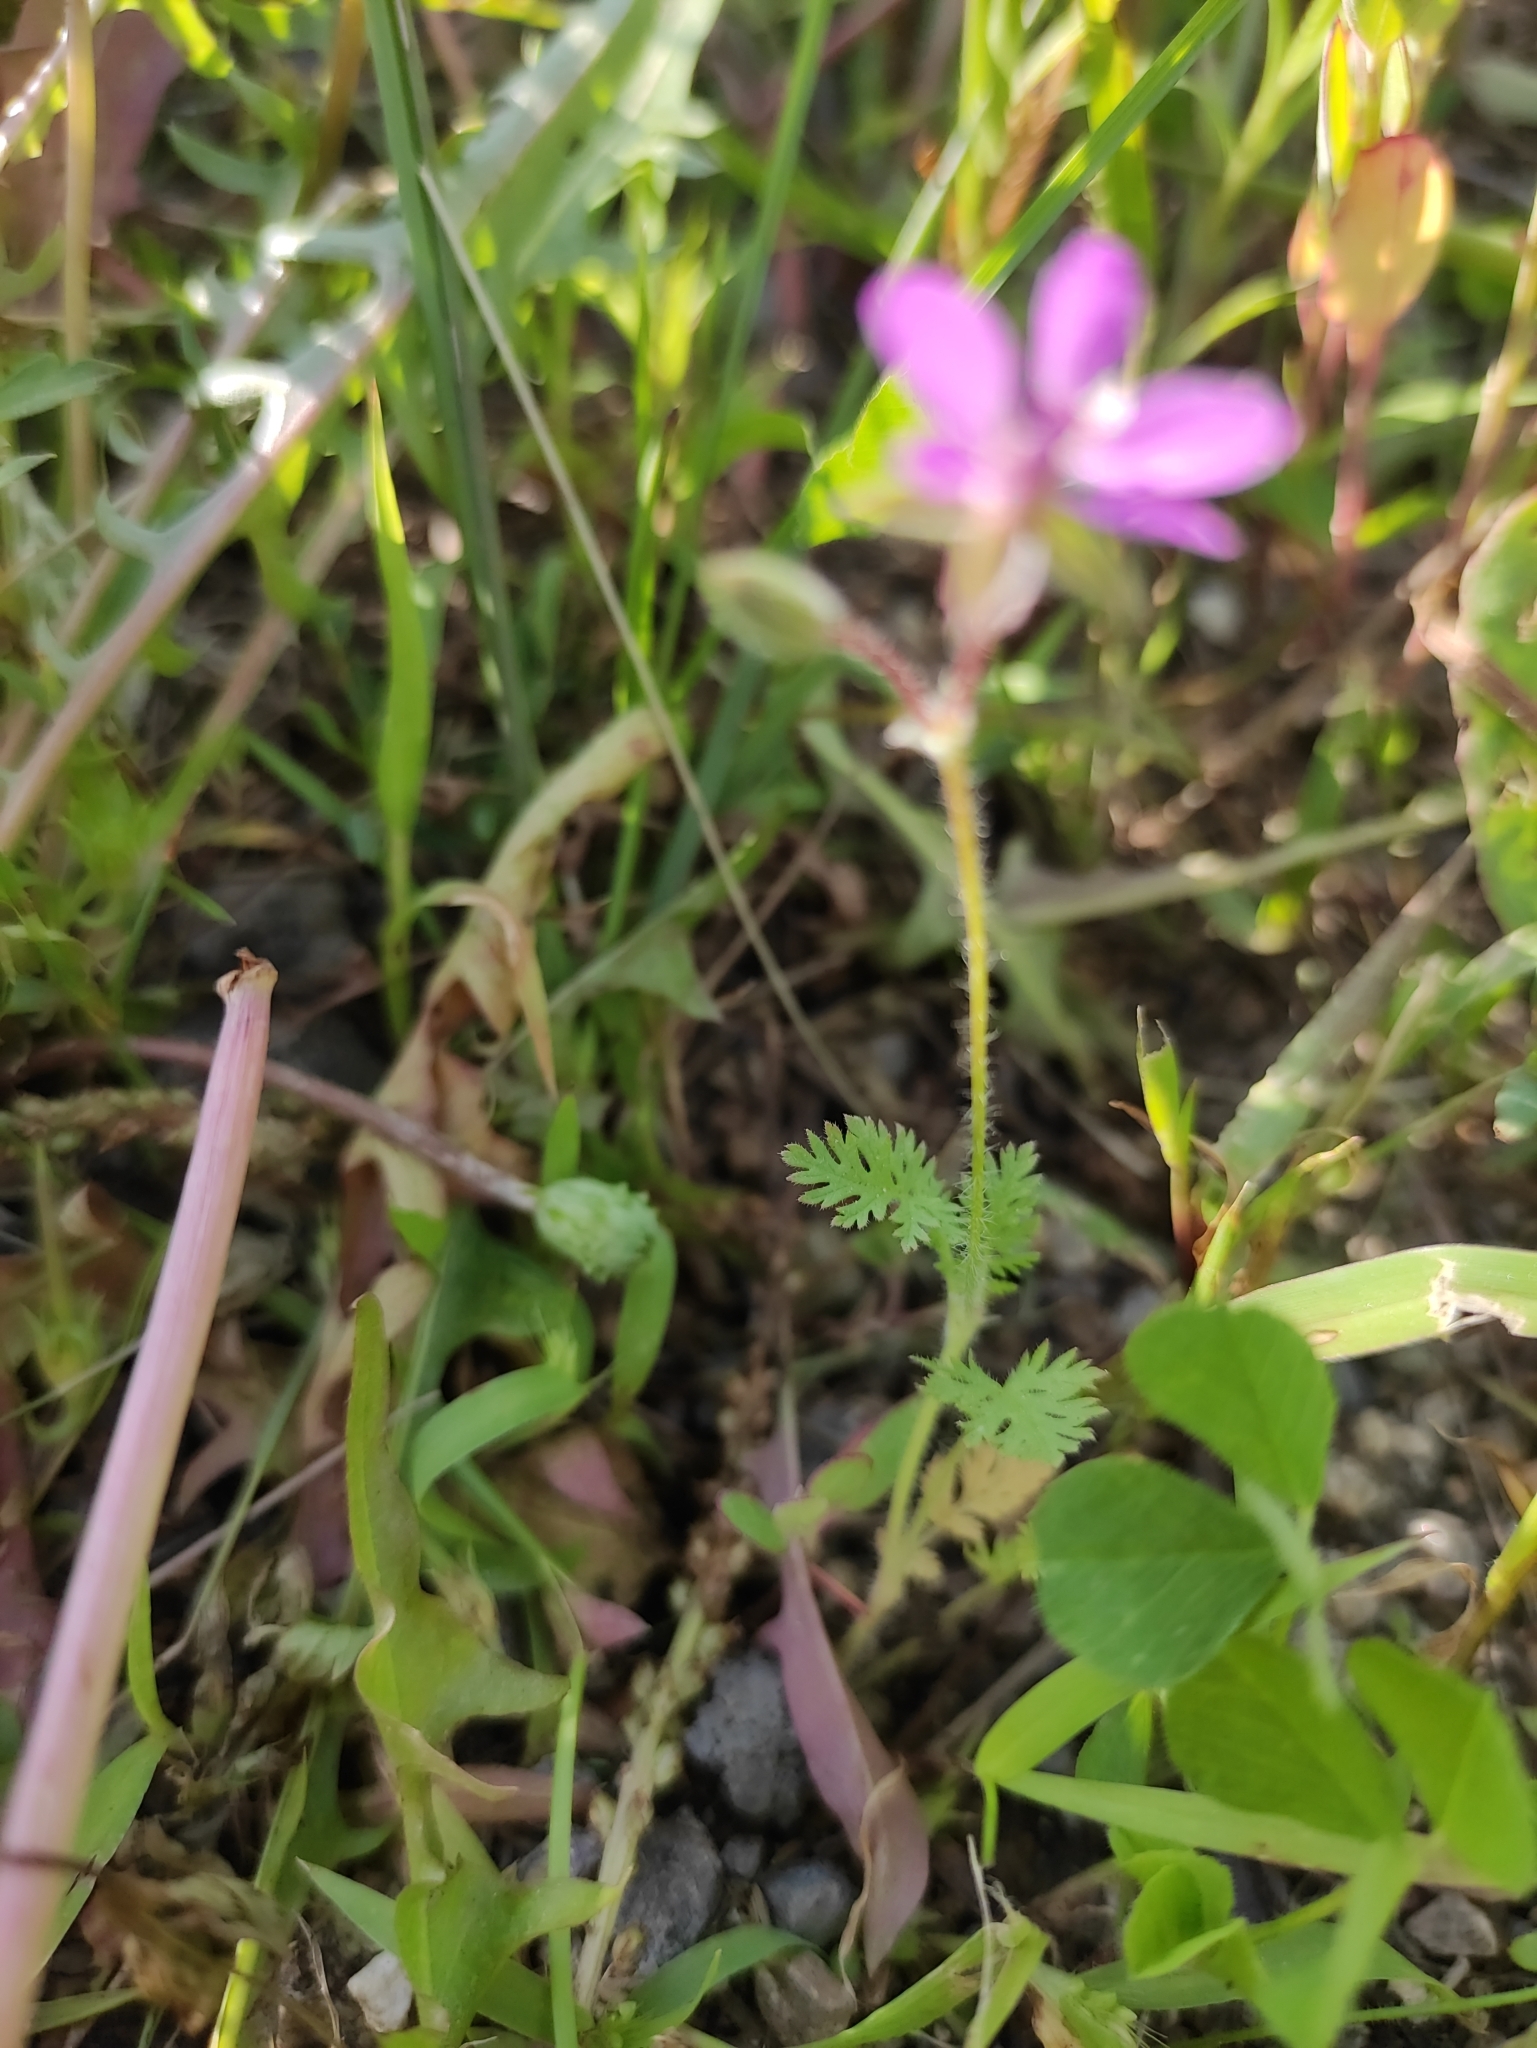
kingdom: Plantae
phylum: Tracheophyta
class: Magnoliopsida
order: Geraniales
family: Geraniaceae
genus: Erodium
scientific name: Erodium cicutarium
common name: Common stork's-bill
